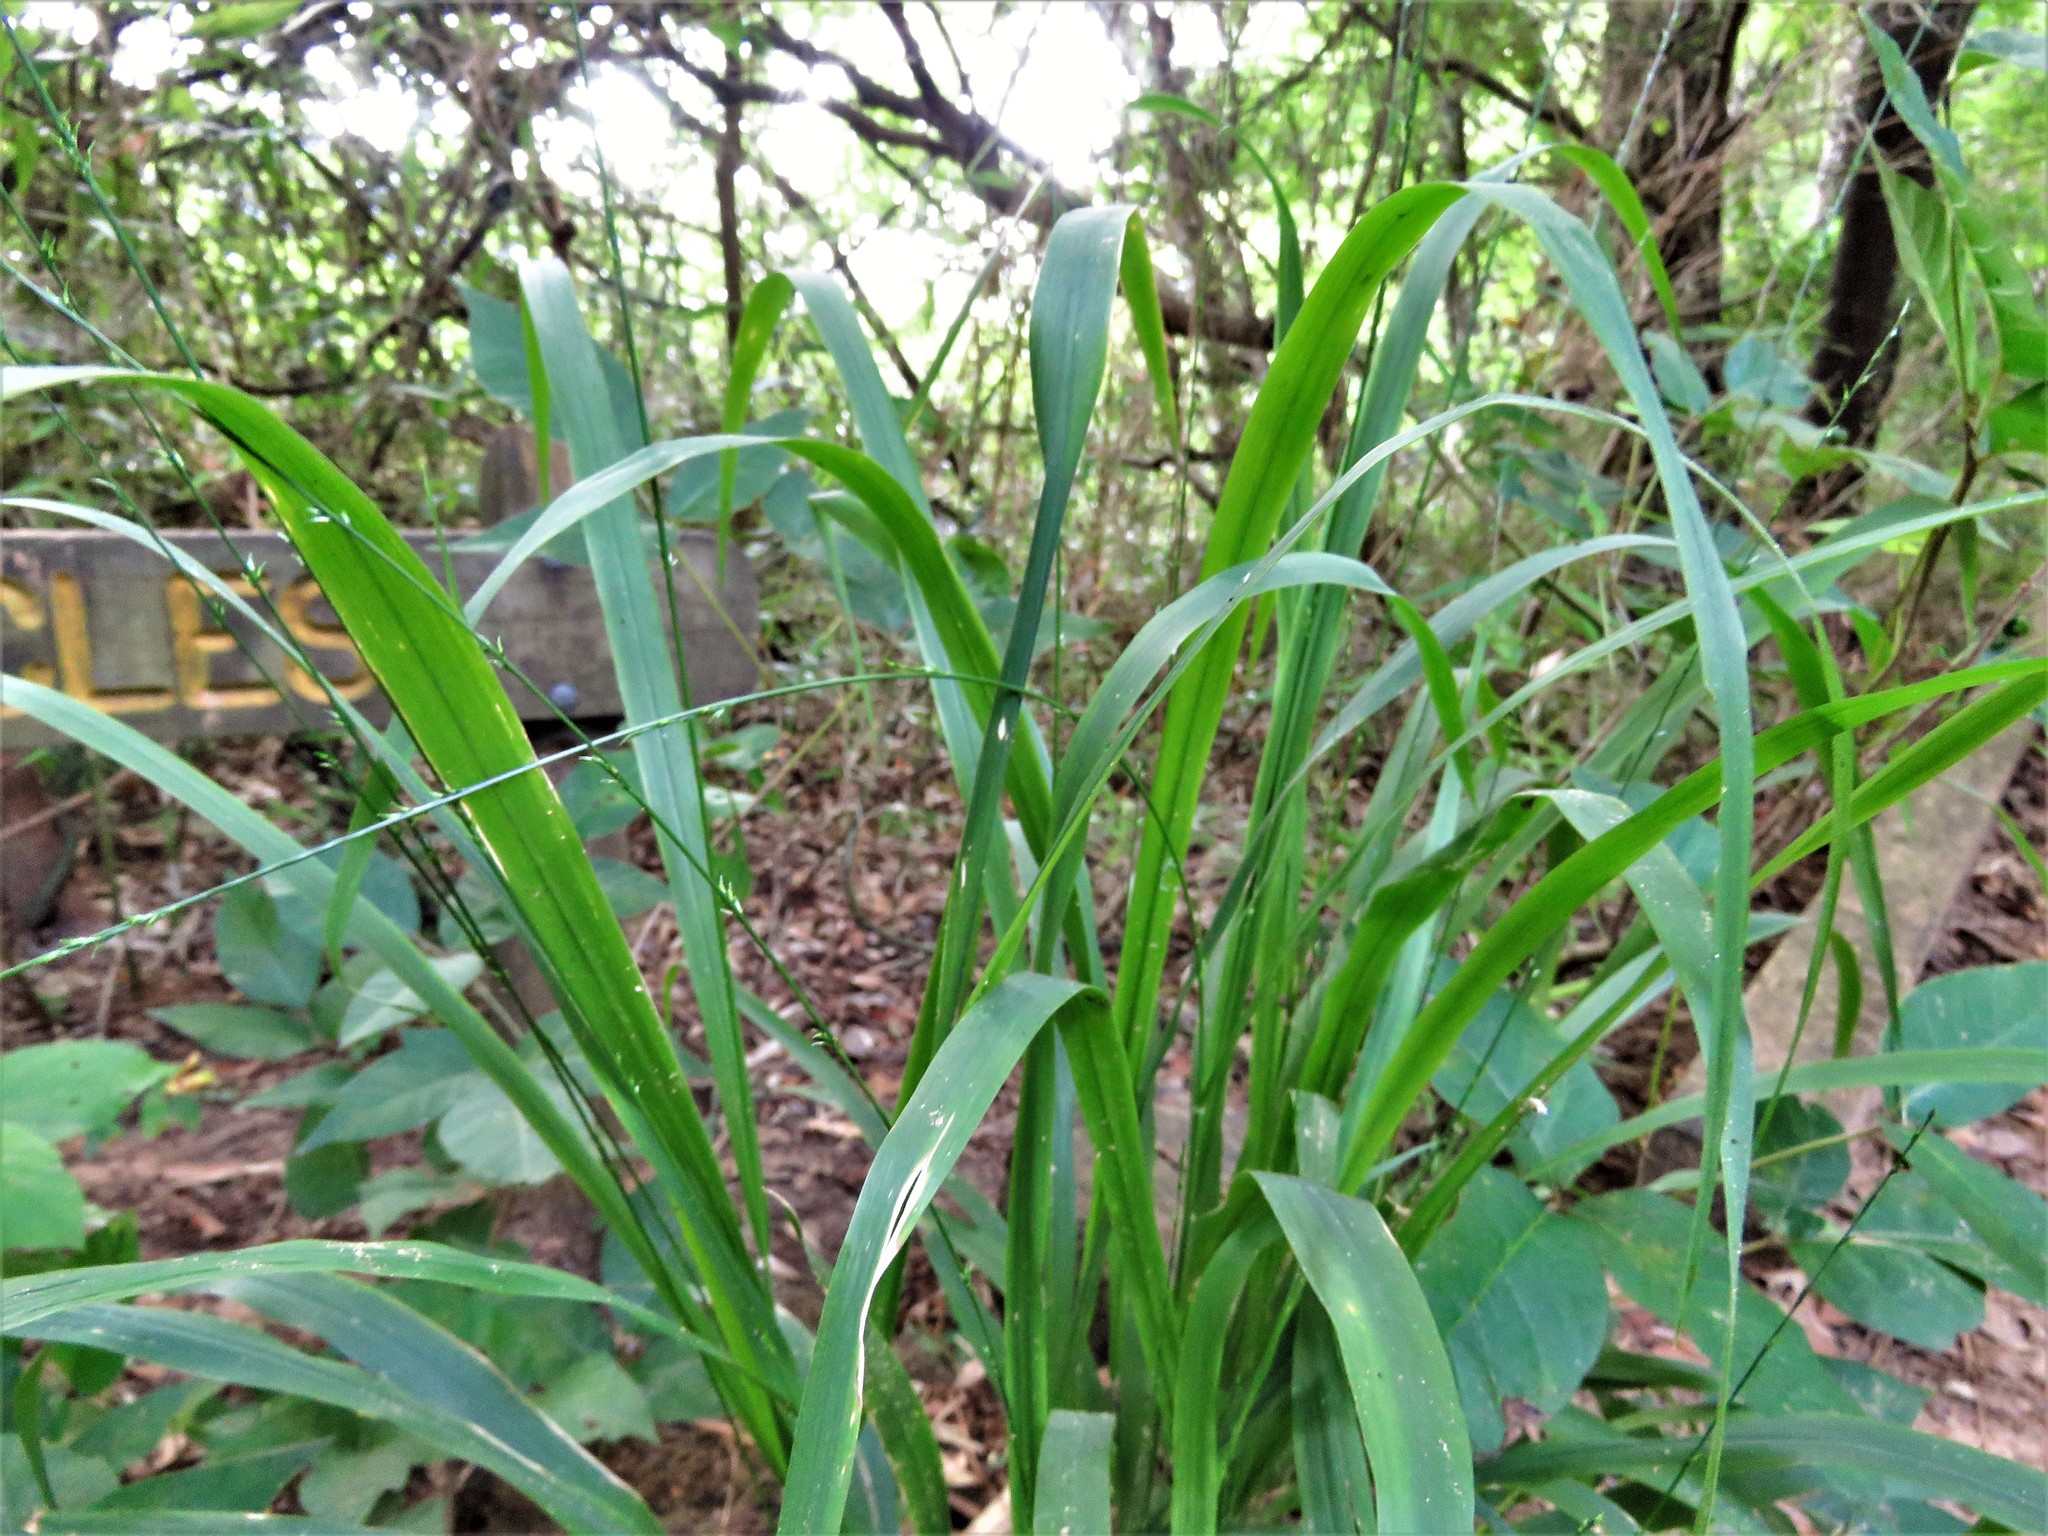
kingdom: Plantae
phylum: Tracheophyta
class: Liliopsida
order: Poales
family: Poaceae
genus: Chasmanthium
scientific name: Chasmanthium laxum
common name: Slender chasmanthium
